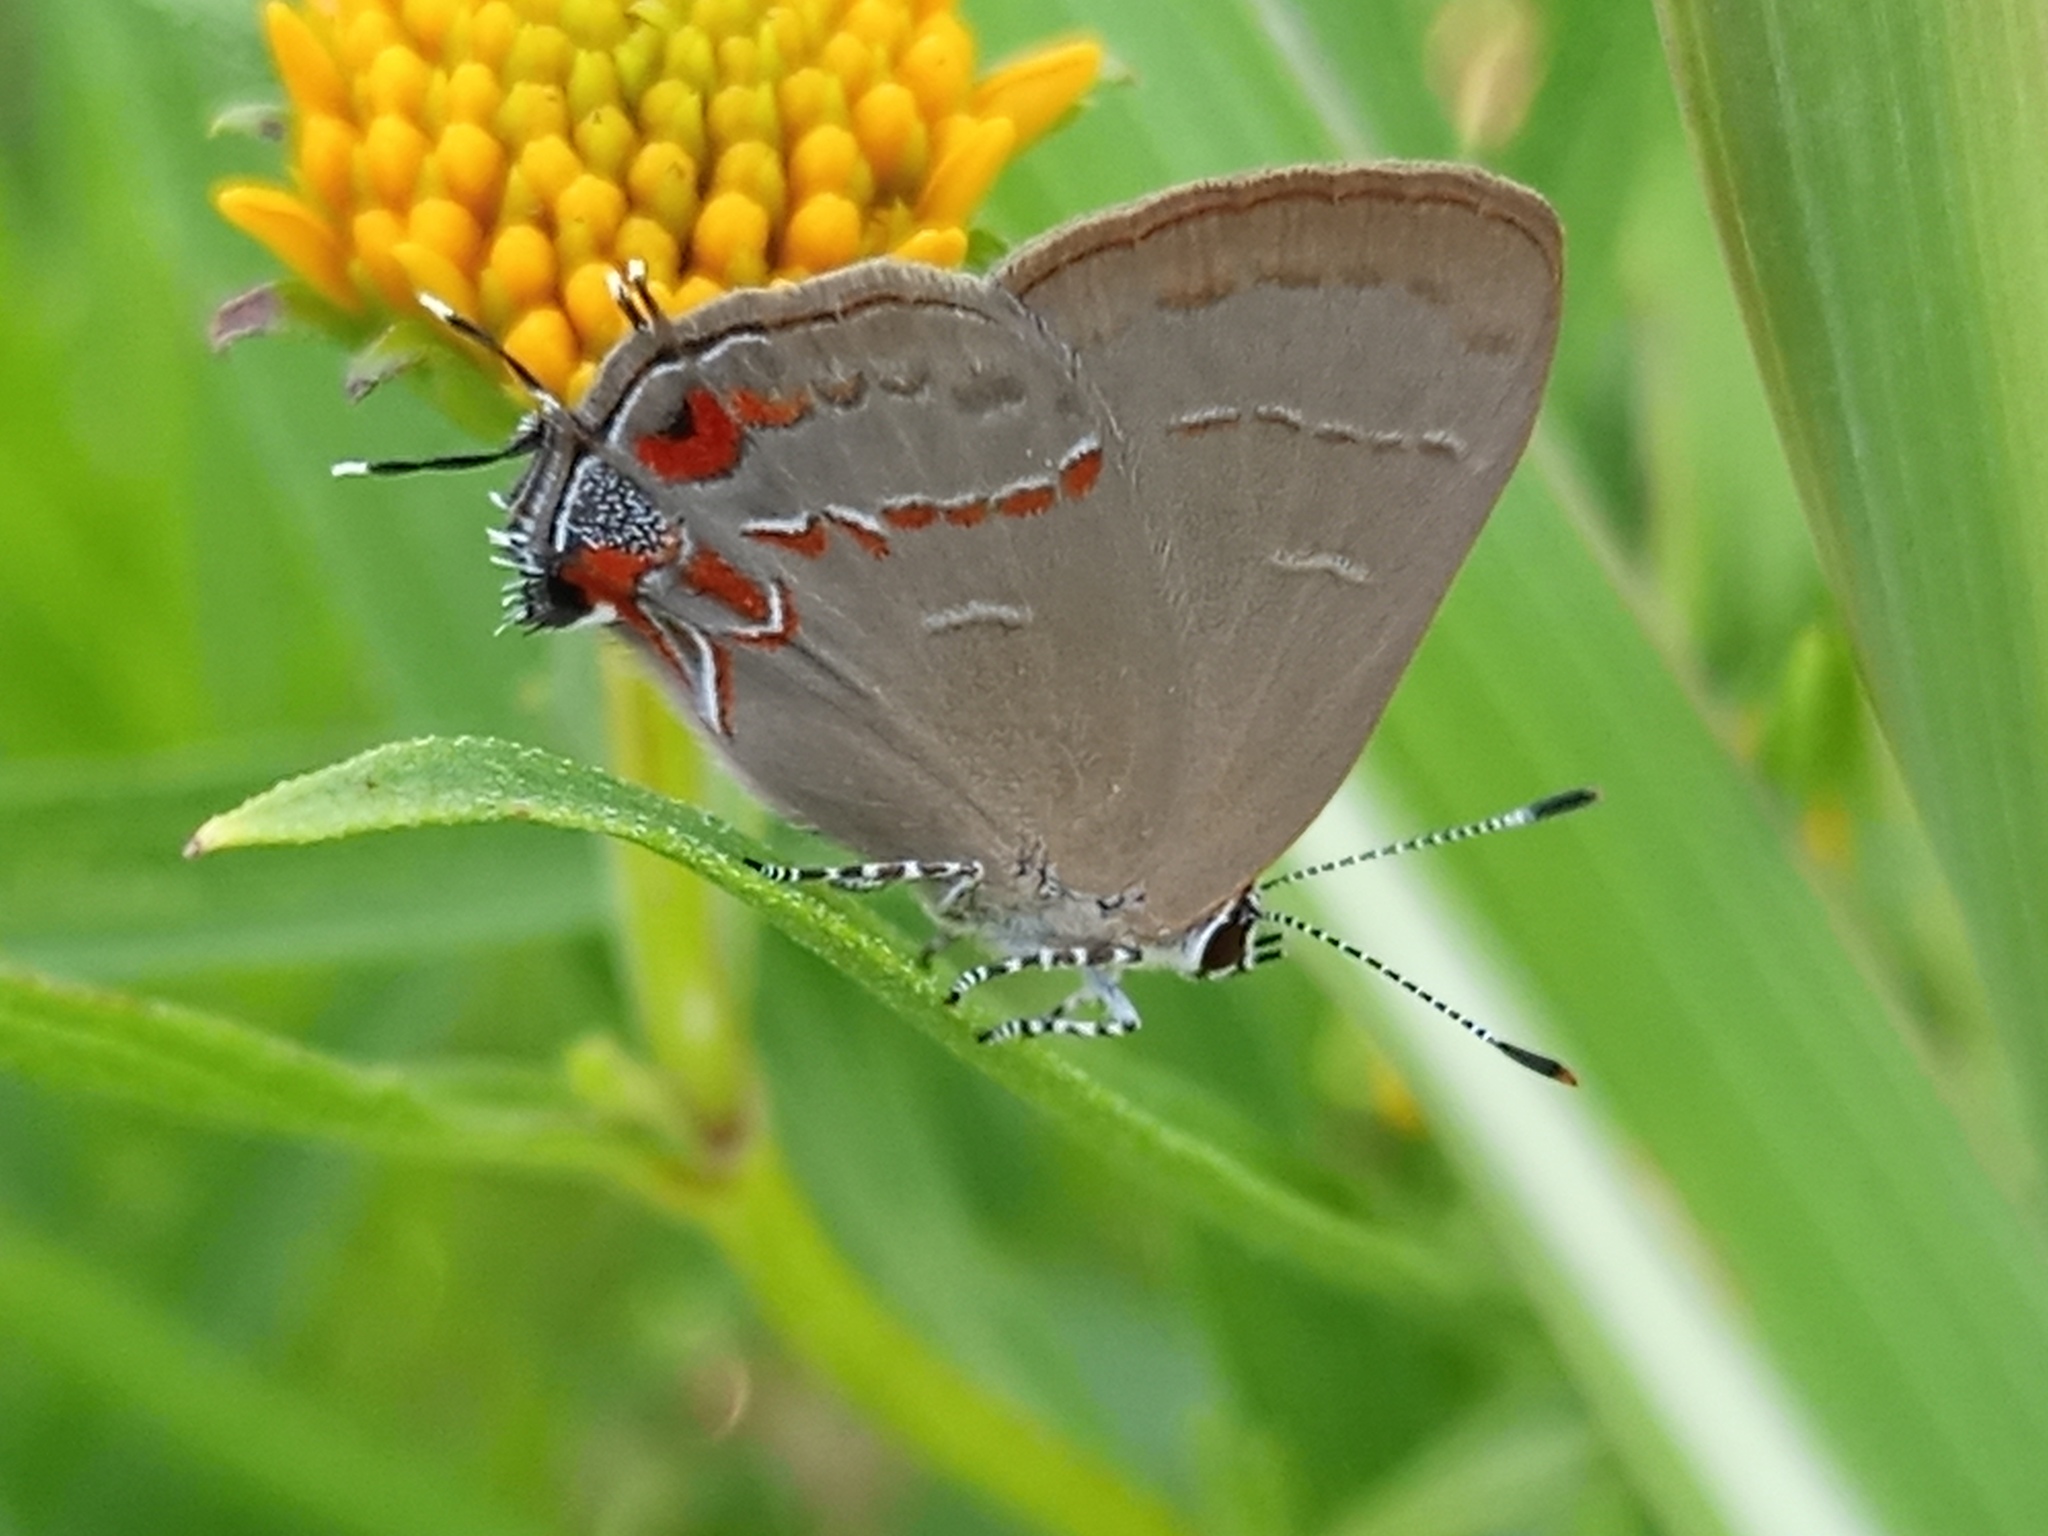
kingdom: Animalia
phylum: Arthropoda
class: Insecta
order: Lepidoptera
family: Lycaenidae
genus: Calycopis
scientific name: Calycopis caulonia
